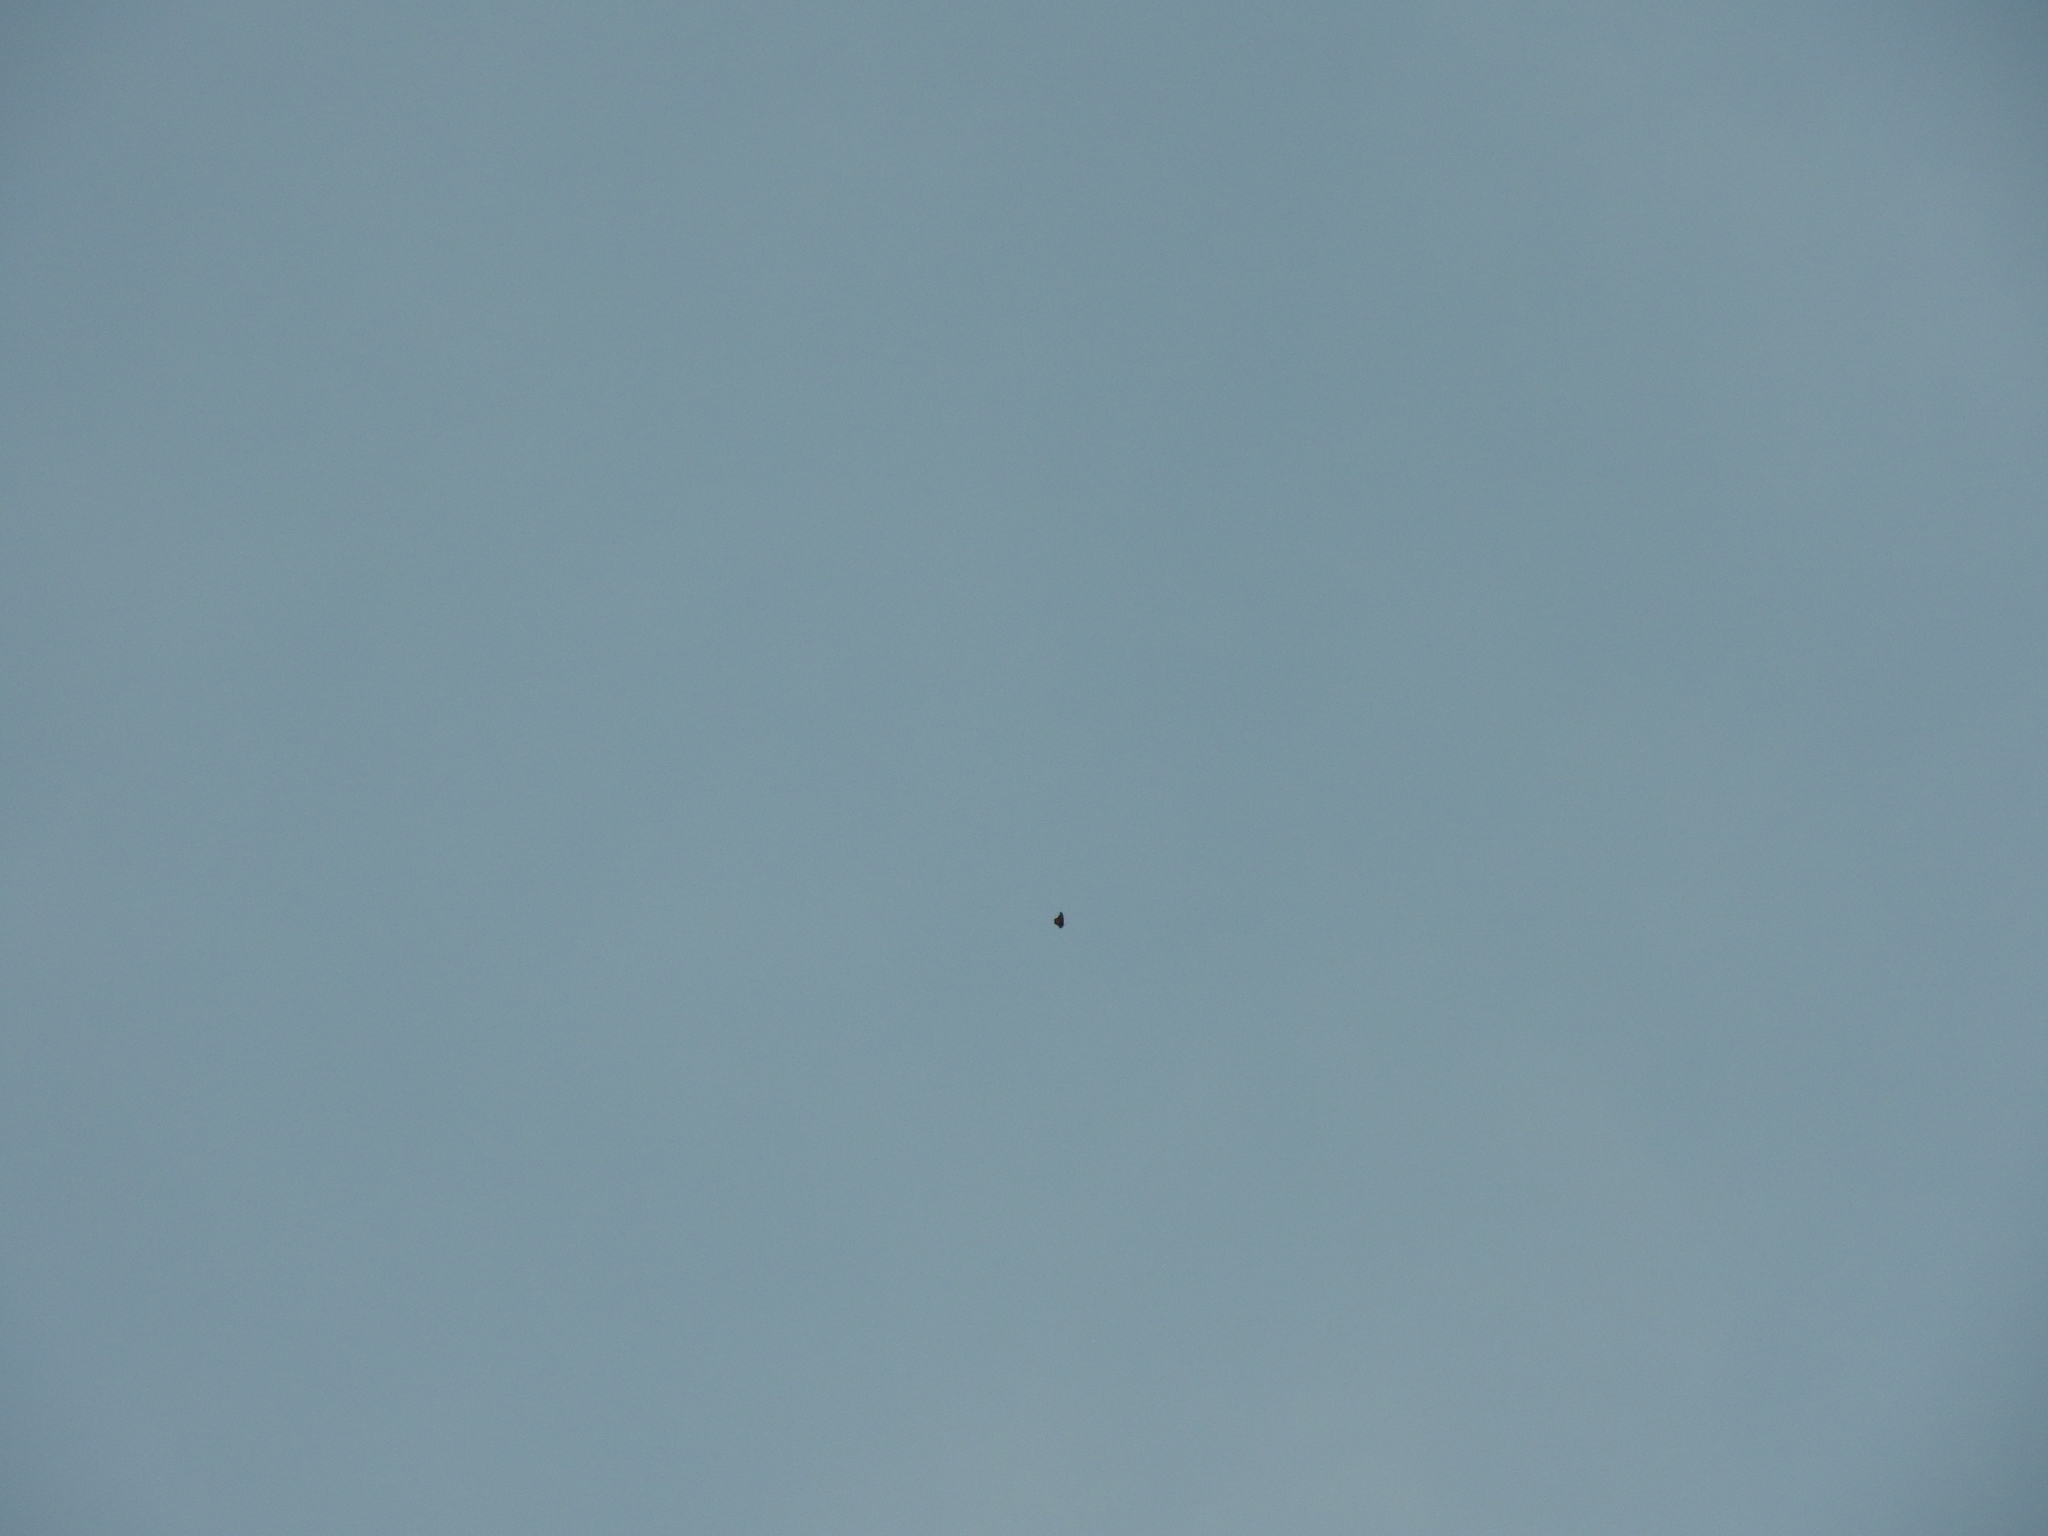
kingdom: Animalia
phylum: Arthropoda
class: Insecta
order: Lepidoptera
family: Nymphalidae
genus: Danaus
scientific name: Danaus plexippus
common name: Monarch
